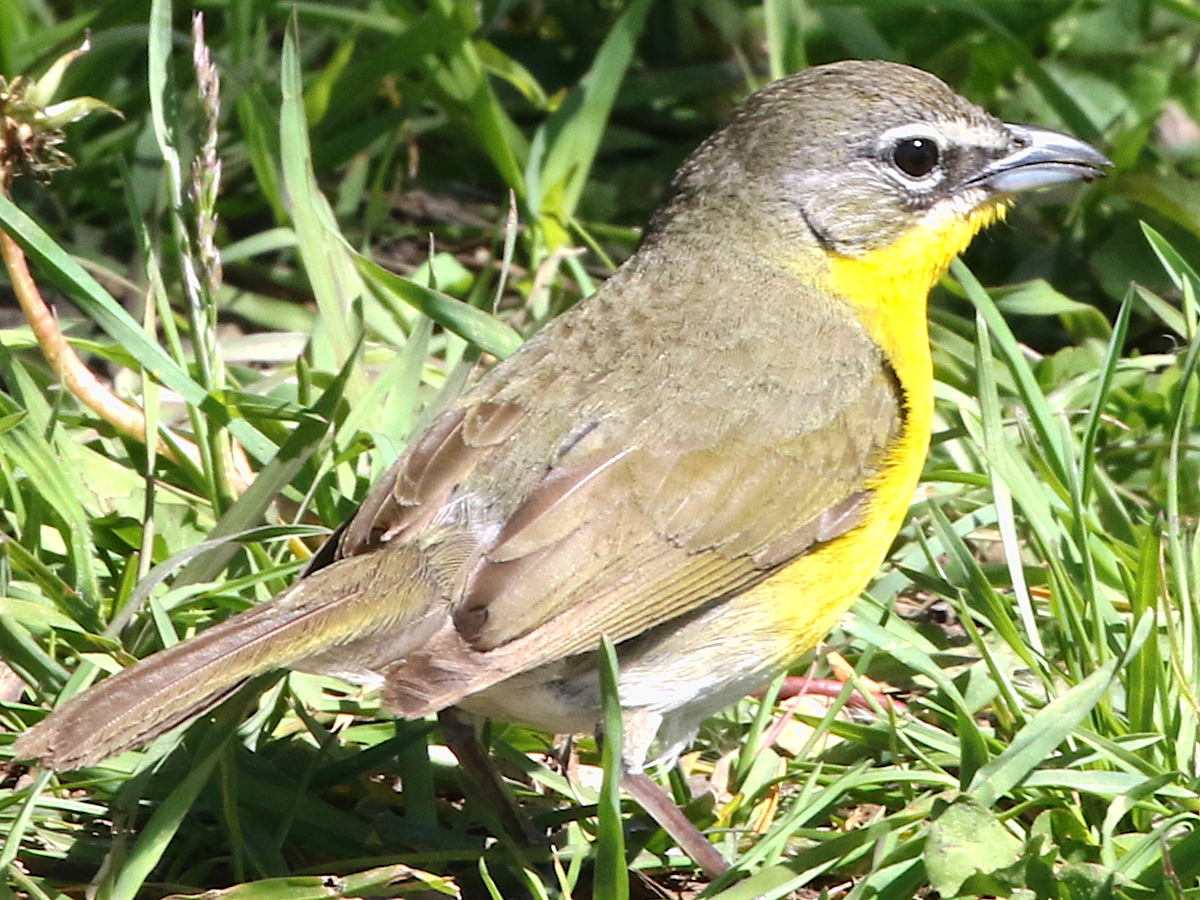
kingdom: Animalia
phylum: Chordata
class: Aves
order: Passeriformes
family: Parulidae
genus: Icteria
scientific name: Icteria virens
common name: Yellow-breasted chat
